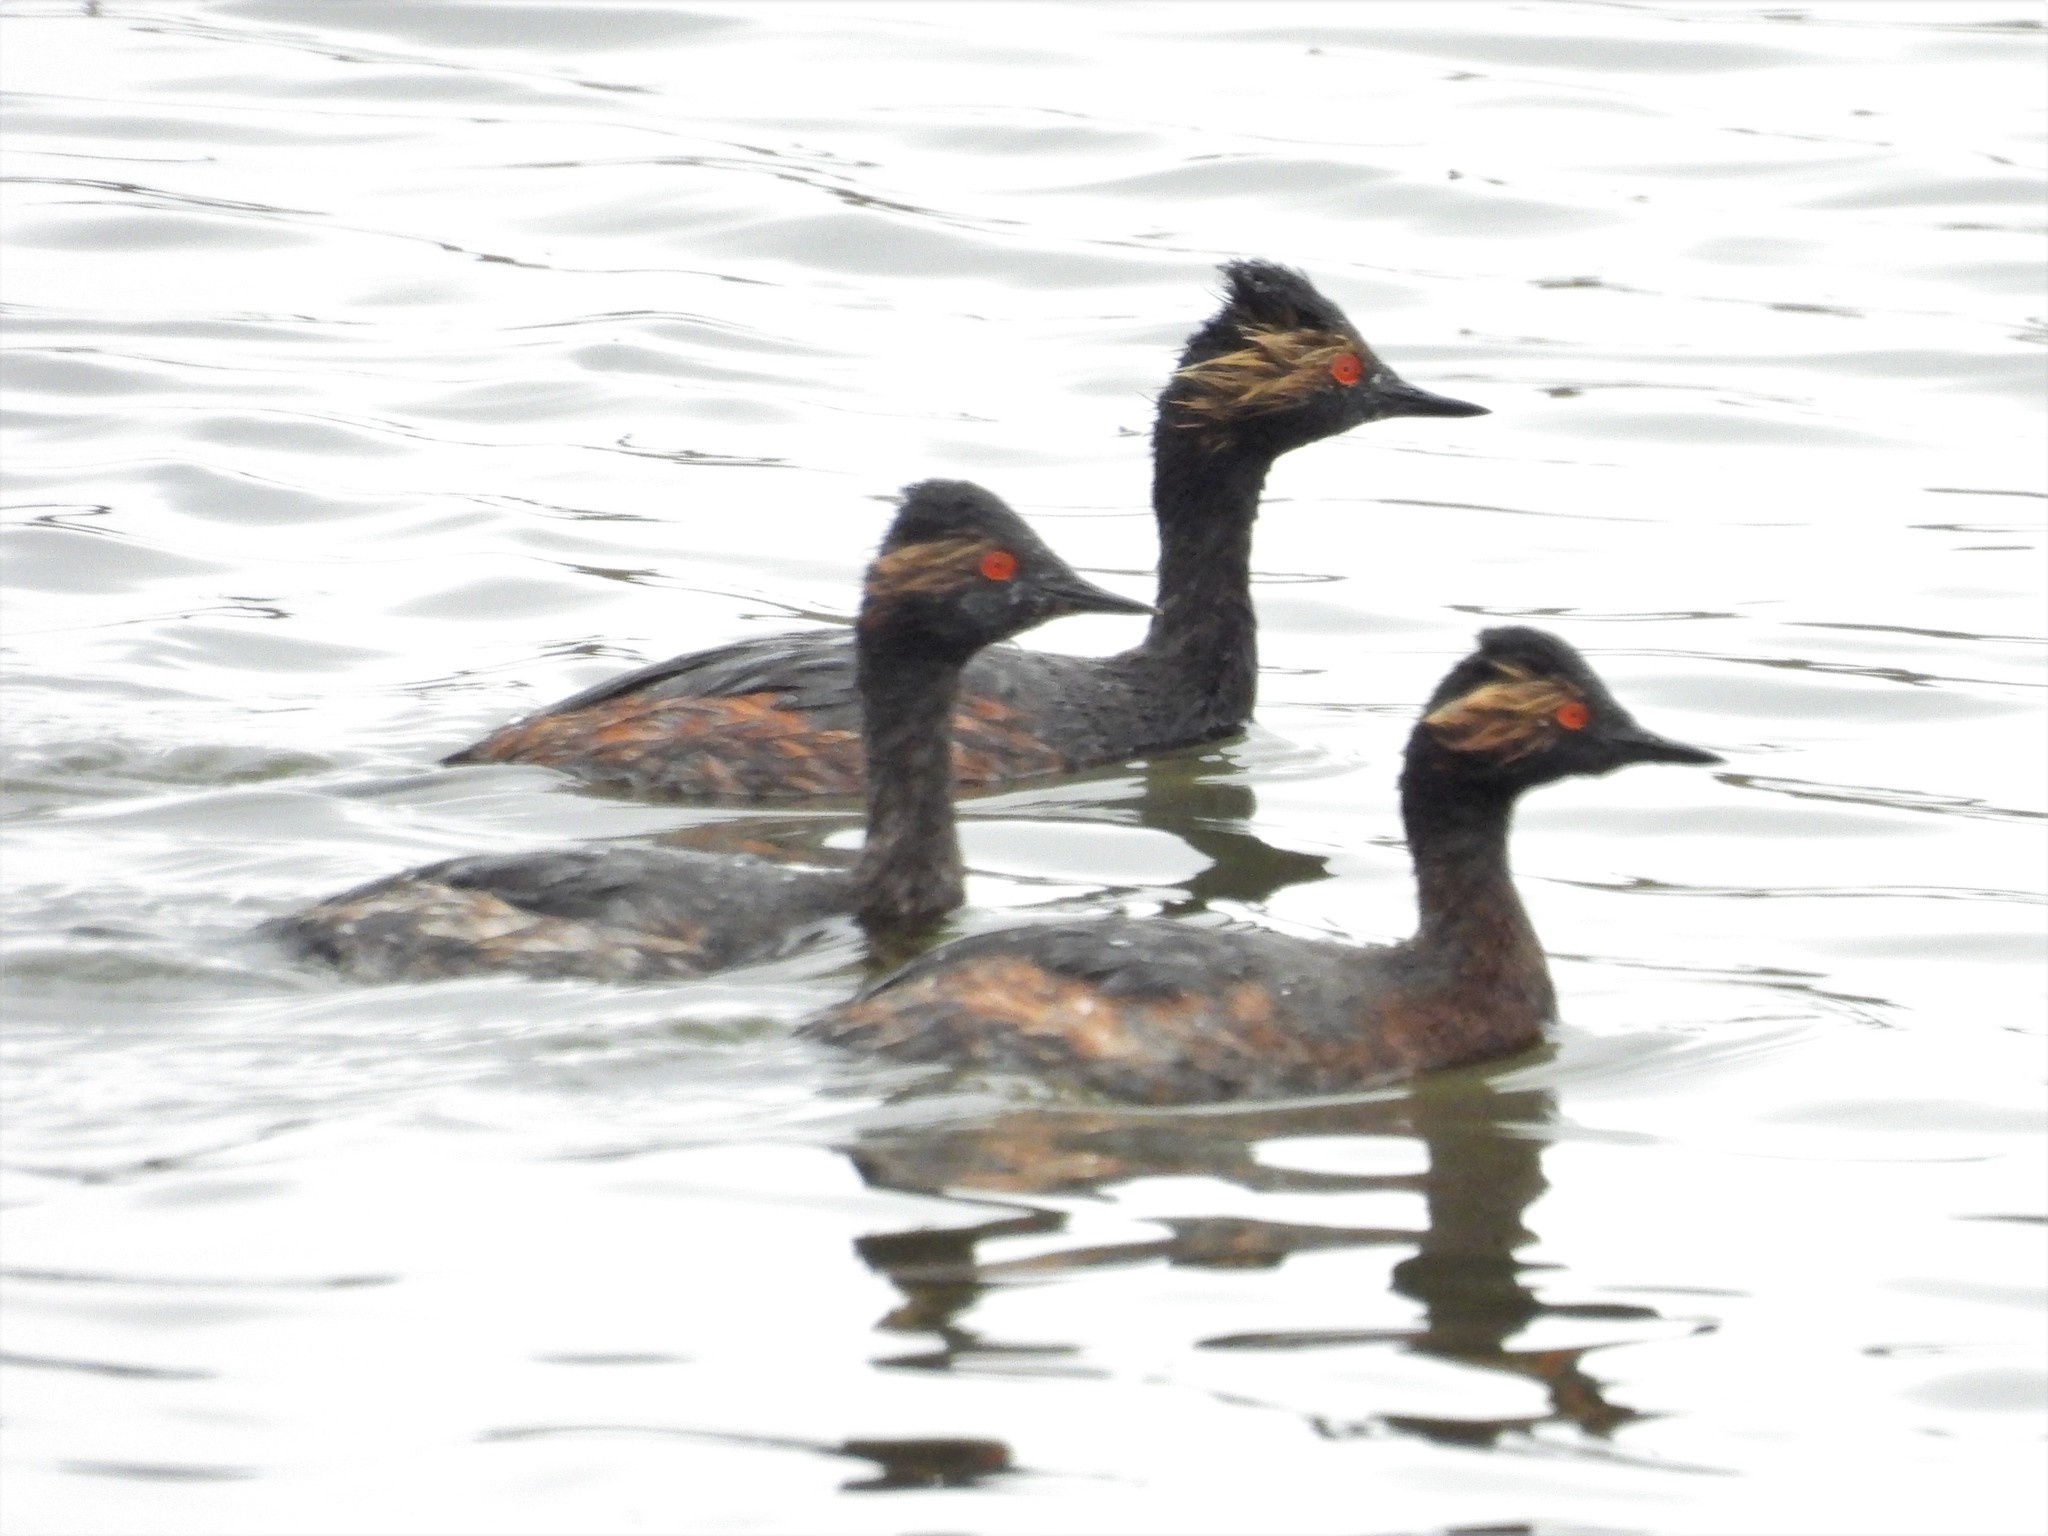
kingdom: Animalia
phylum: Chordata
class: Aves
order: Podicipediformes
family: Podicipedidae
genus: Podiceps
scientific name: Podiceps nigricollis
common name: Black-necked grebe
